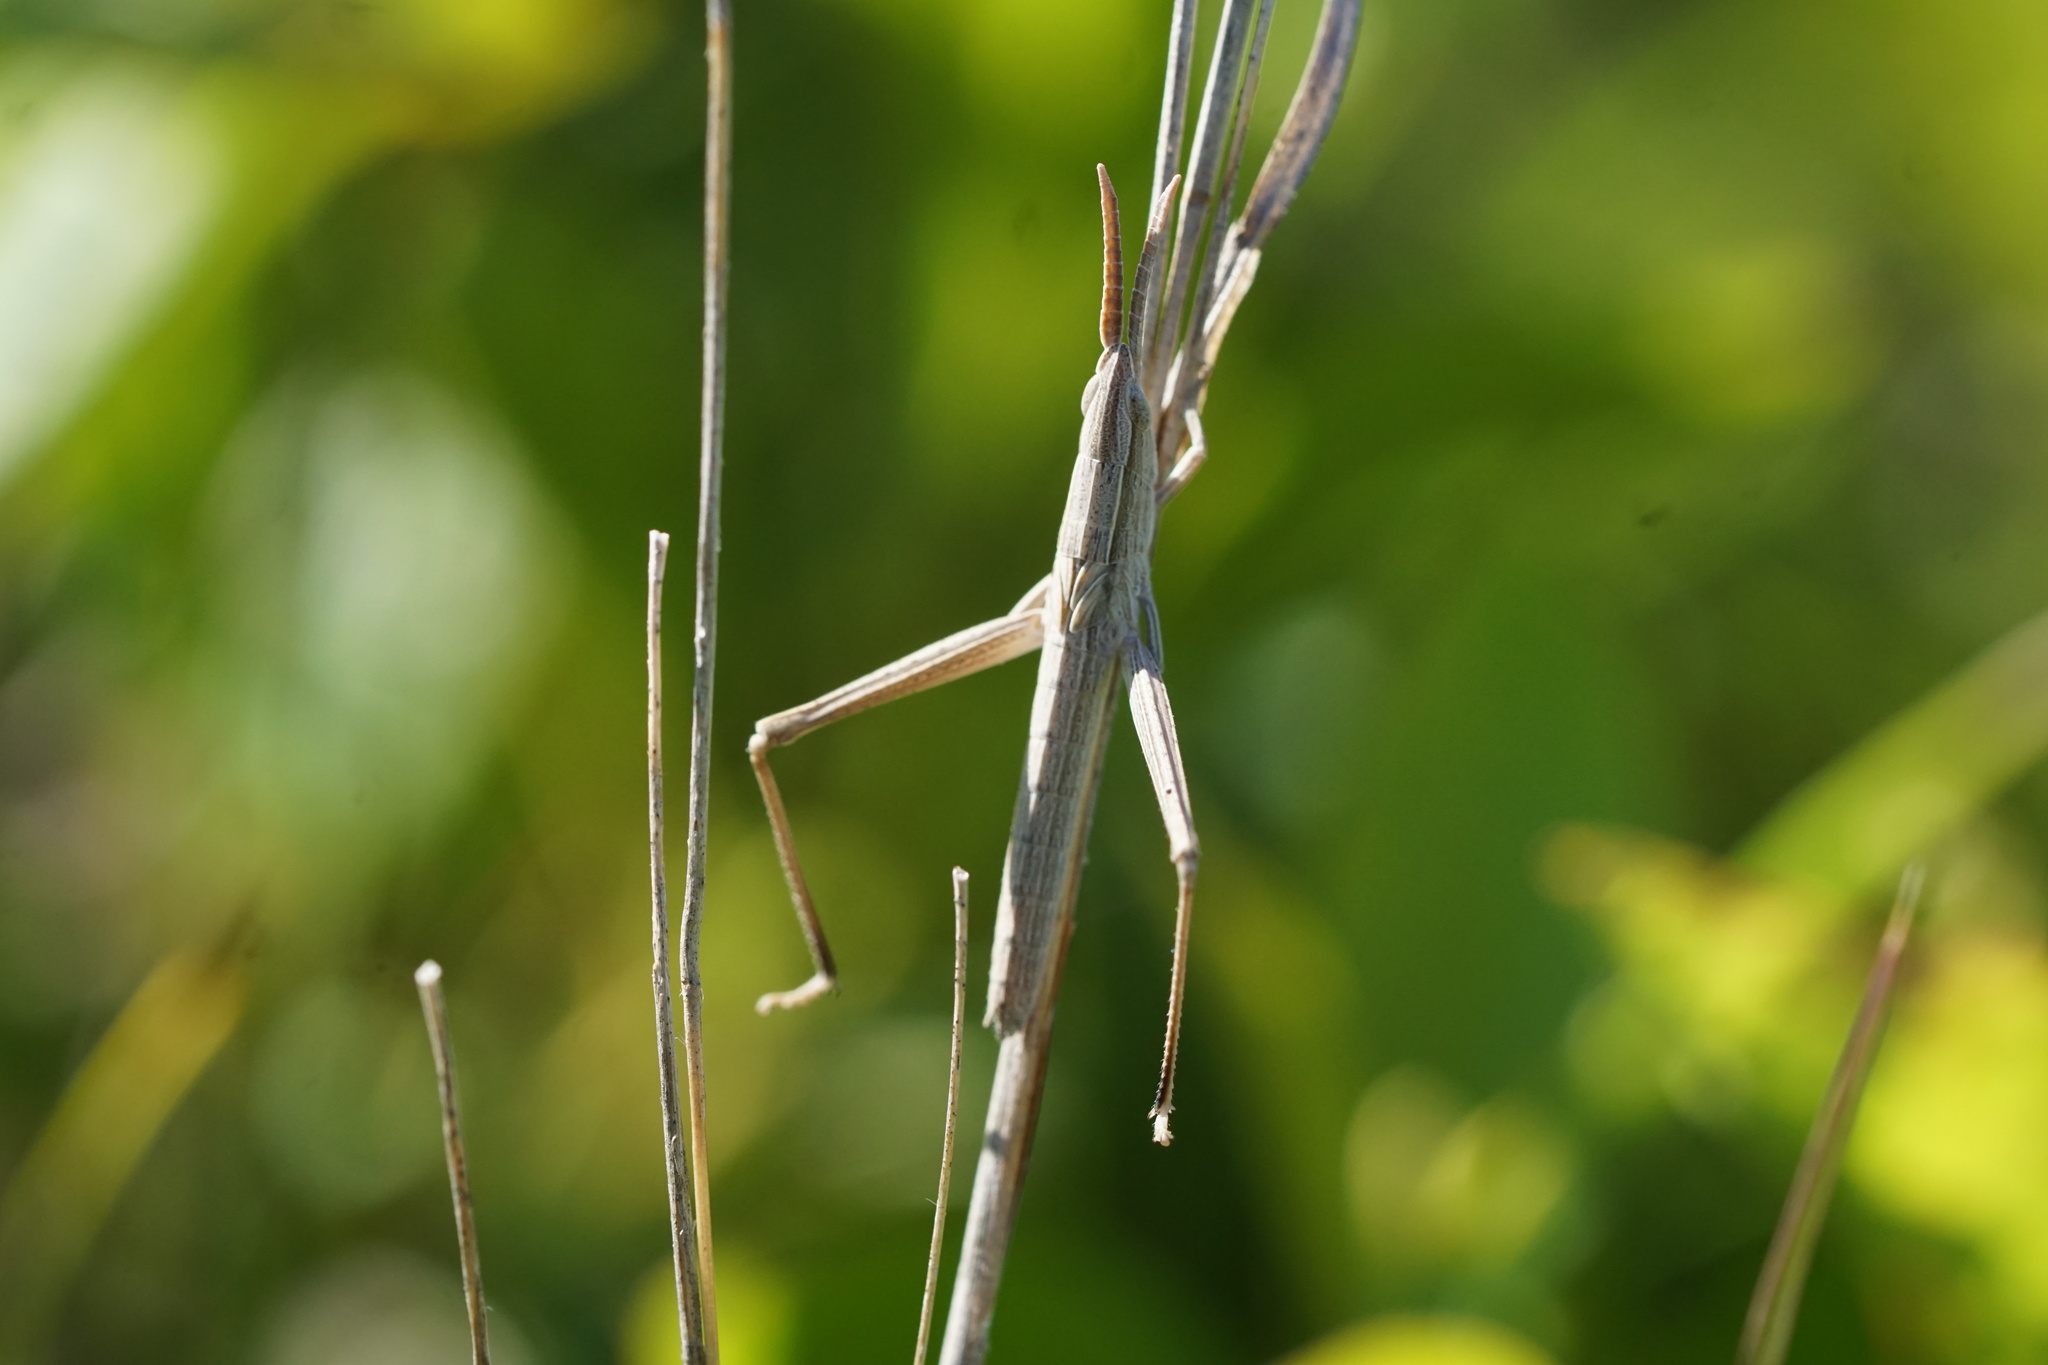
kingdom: Animalia
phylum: Arthropoda
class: Insecta
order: Orthoptera
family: Acrididae
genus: Pseudopomala
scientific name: Pseudopomala brachyptera
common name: Bunchgrass grasshopper
